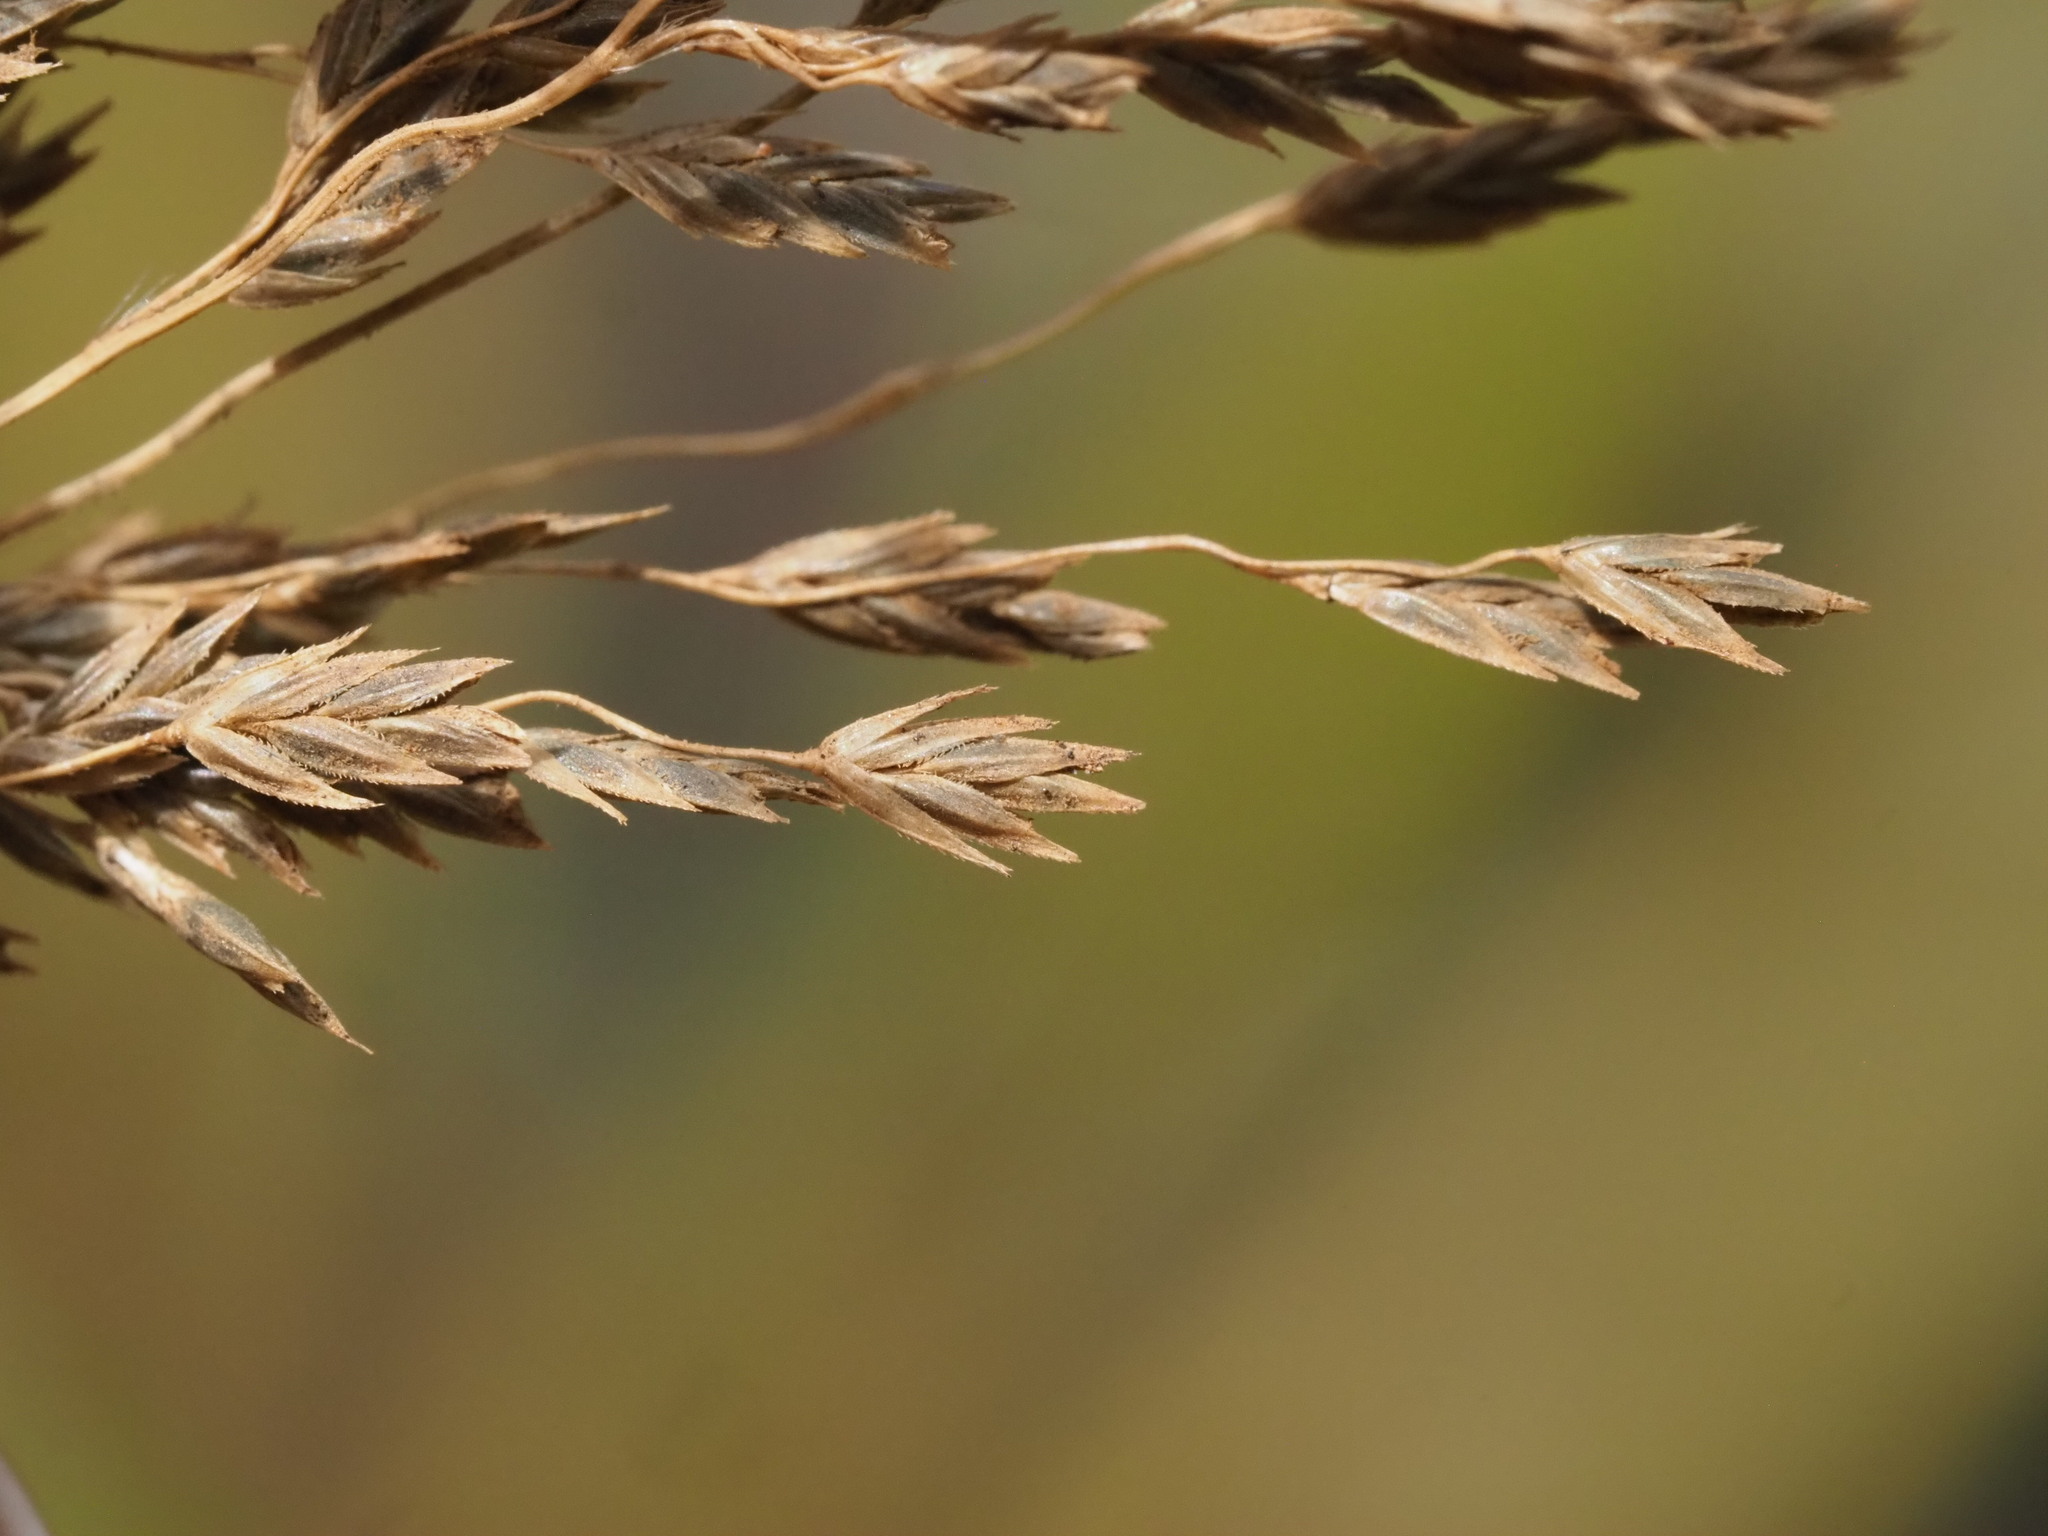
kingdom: Plantae
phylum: Tracheophyta
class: Liliopsida
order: Poales
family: Poaceae
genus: Eragrostis
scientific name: Eragrostis grandis
